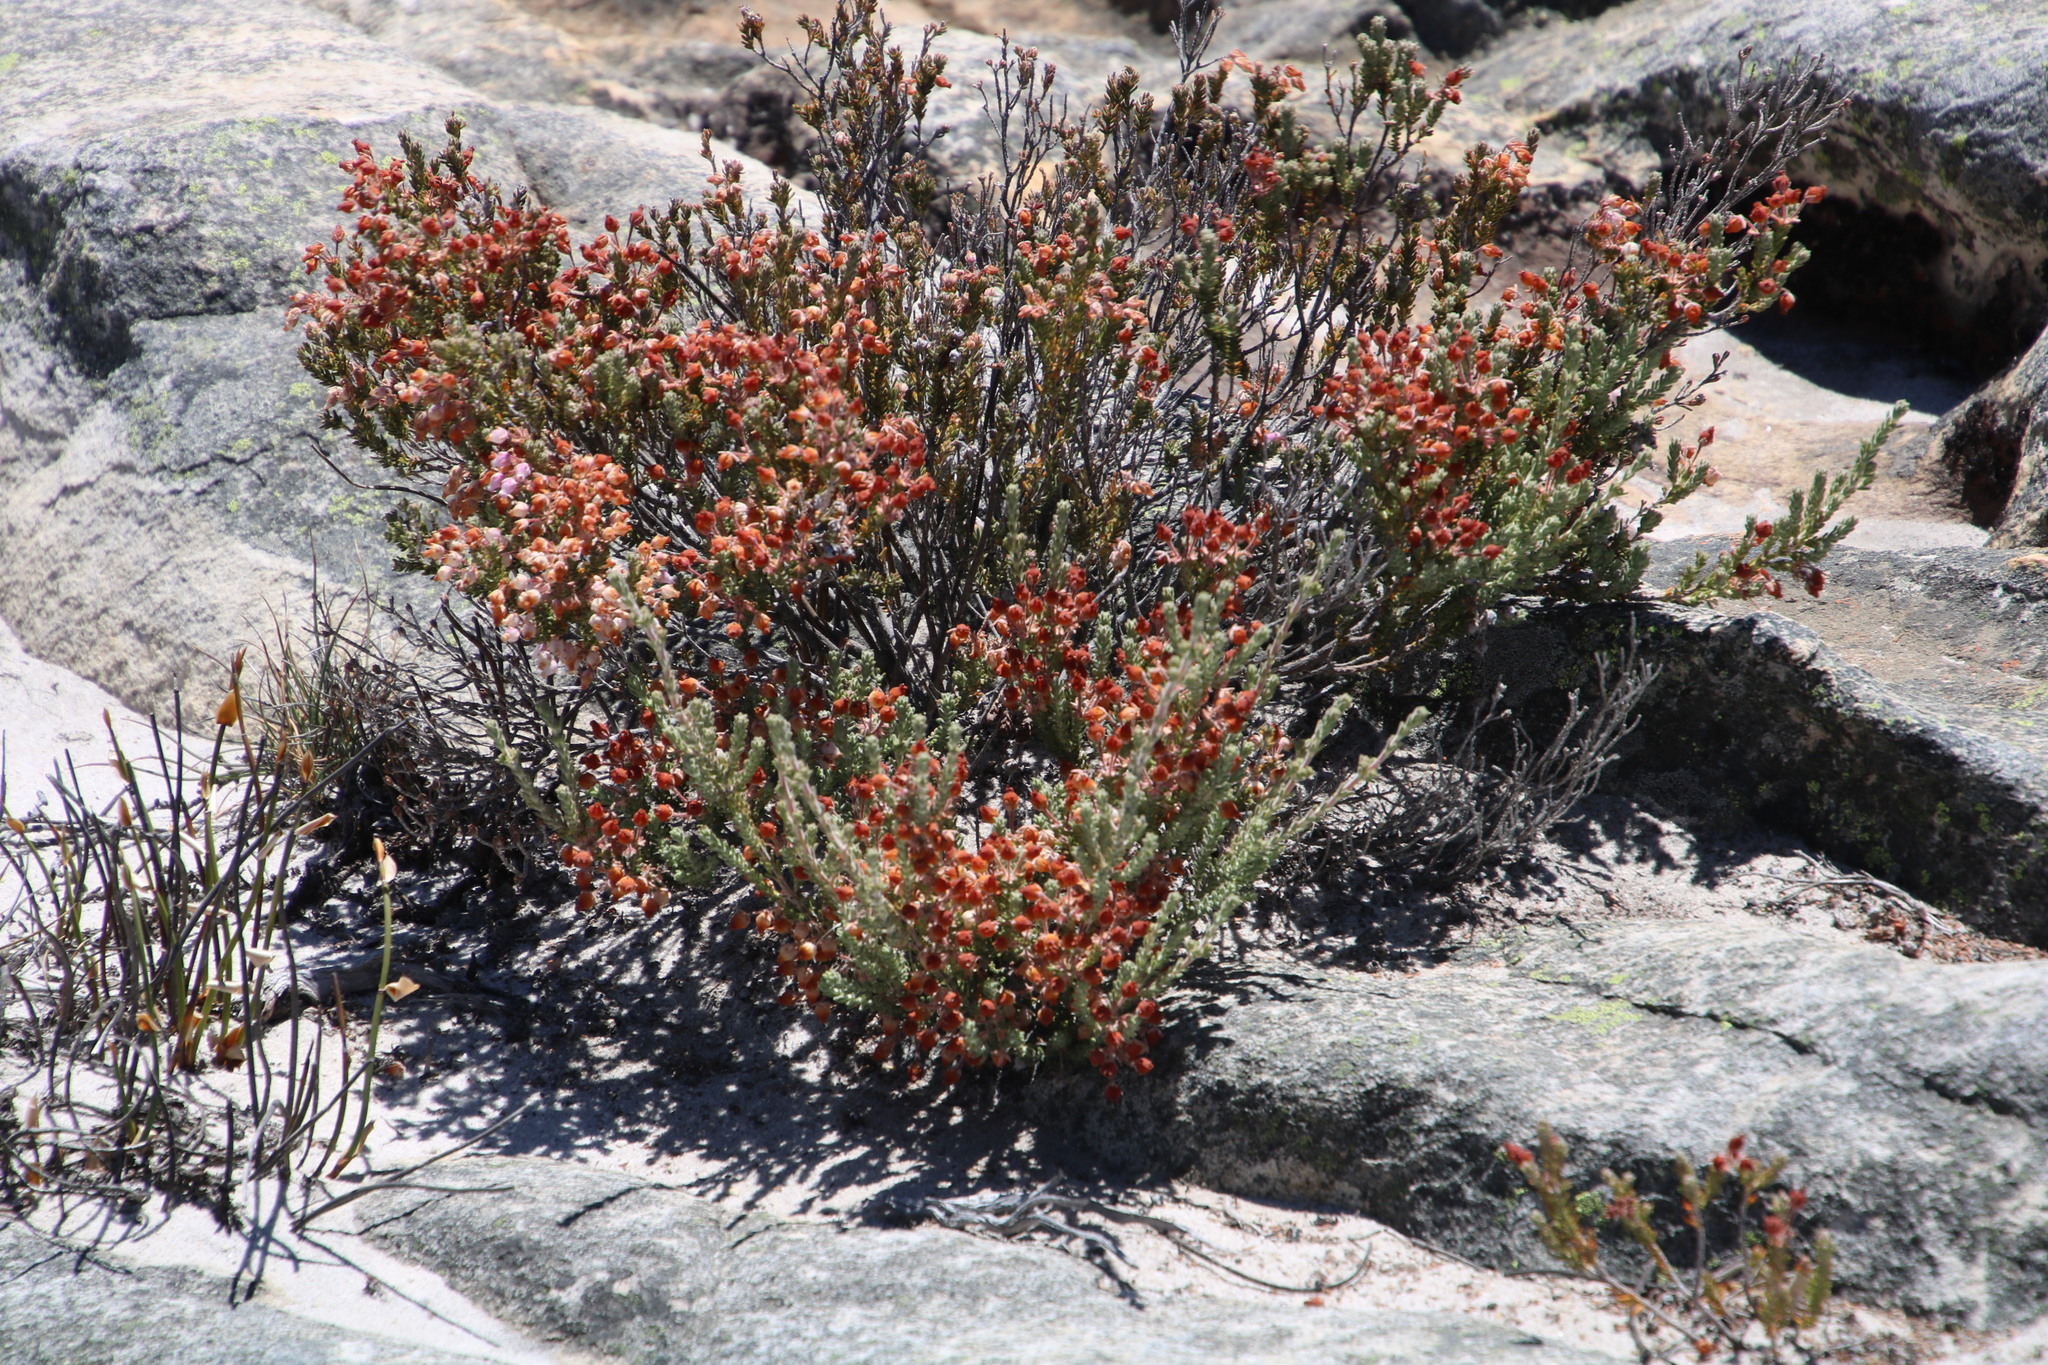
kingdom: Plantae
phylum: Tracheophyta
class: Magnoliopsida
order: Ericales
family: Ericaceae
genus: Erica
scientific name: Erica oresigena
